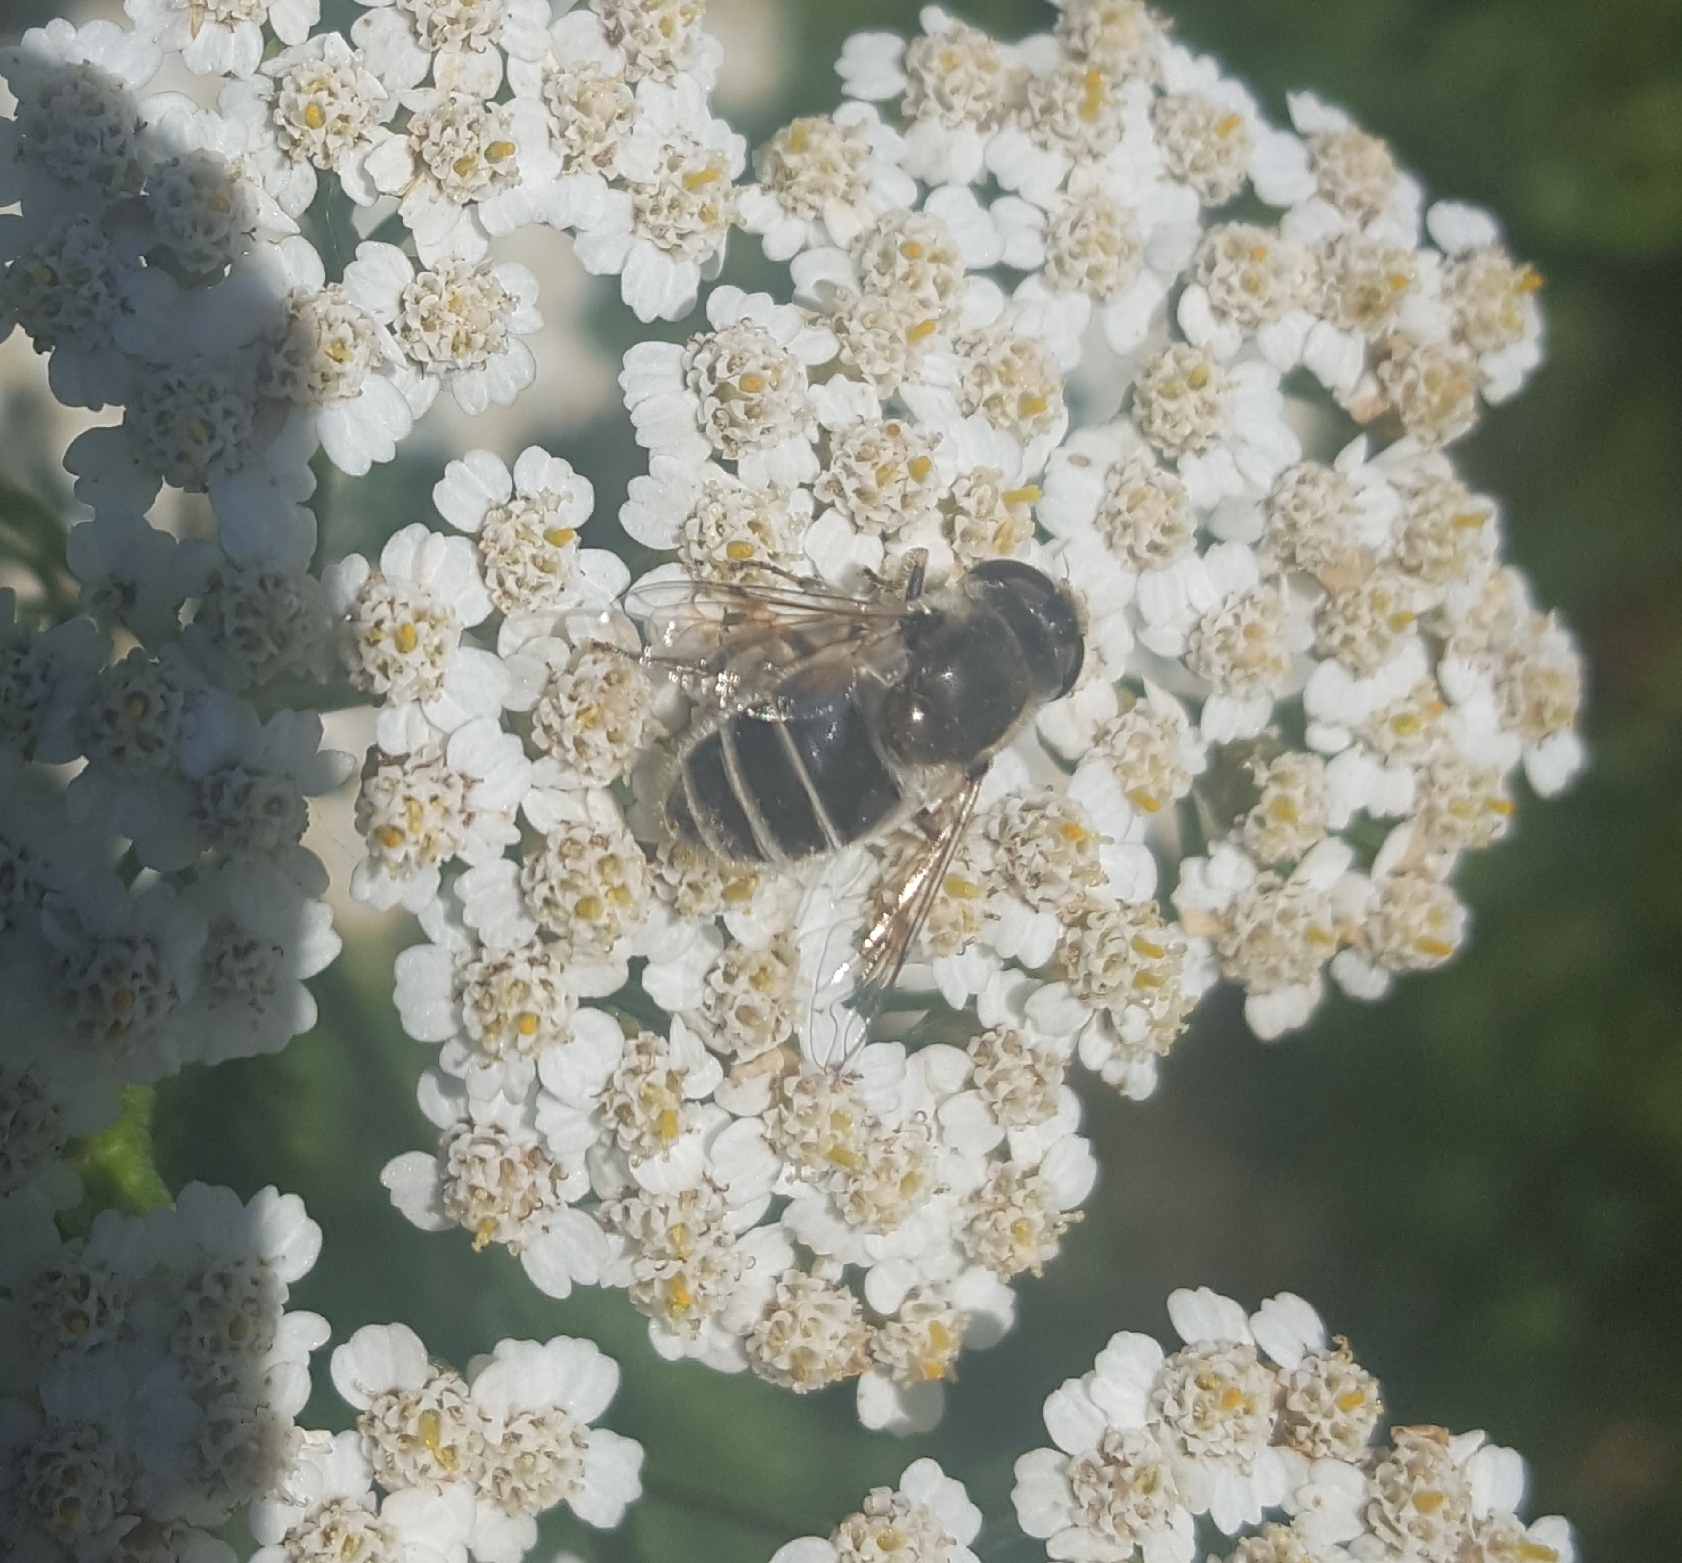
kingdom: Animalia
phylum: Arthropoda
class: Insecta
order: Diptera
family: Syrphidae
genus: Eristalis
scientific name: Eristalis arbustorum
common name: Hover fly
